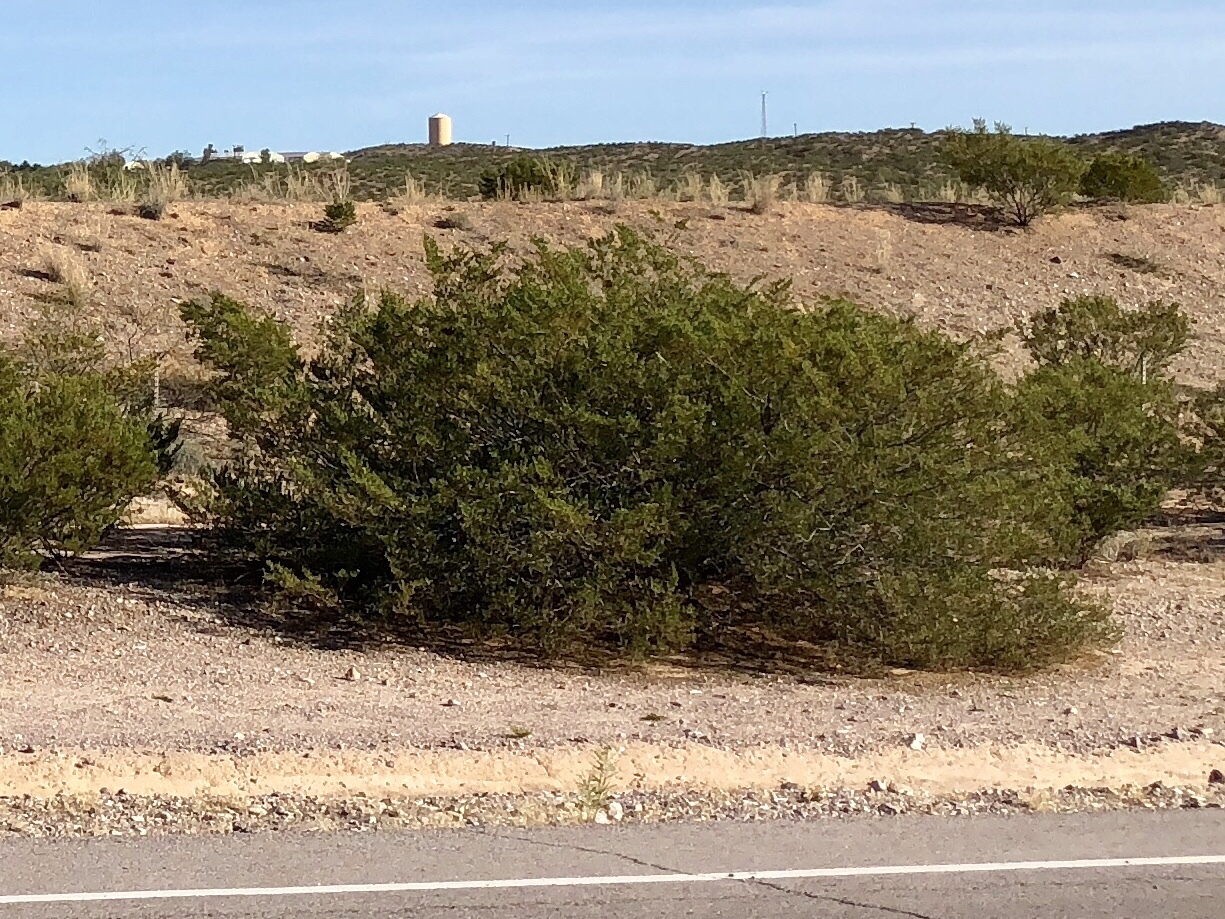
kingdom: Plantae
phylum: Tracheophyta
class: Magnoliopsida
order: Zygophyllales
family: Zygophyllaceae
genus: Larrea
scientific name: Larrea tridentata
